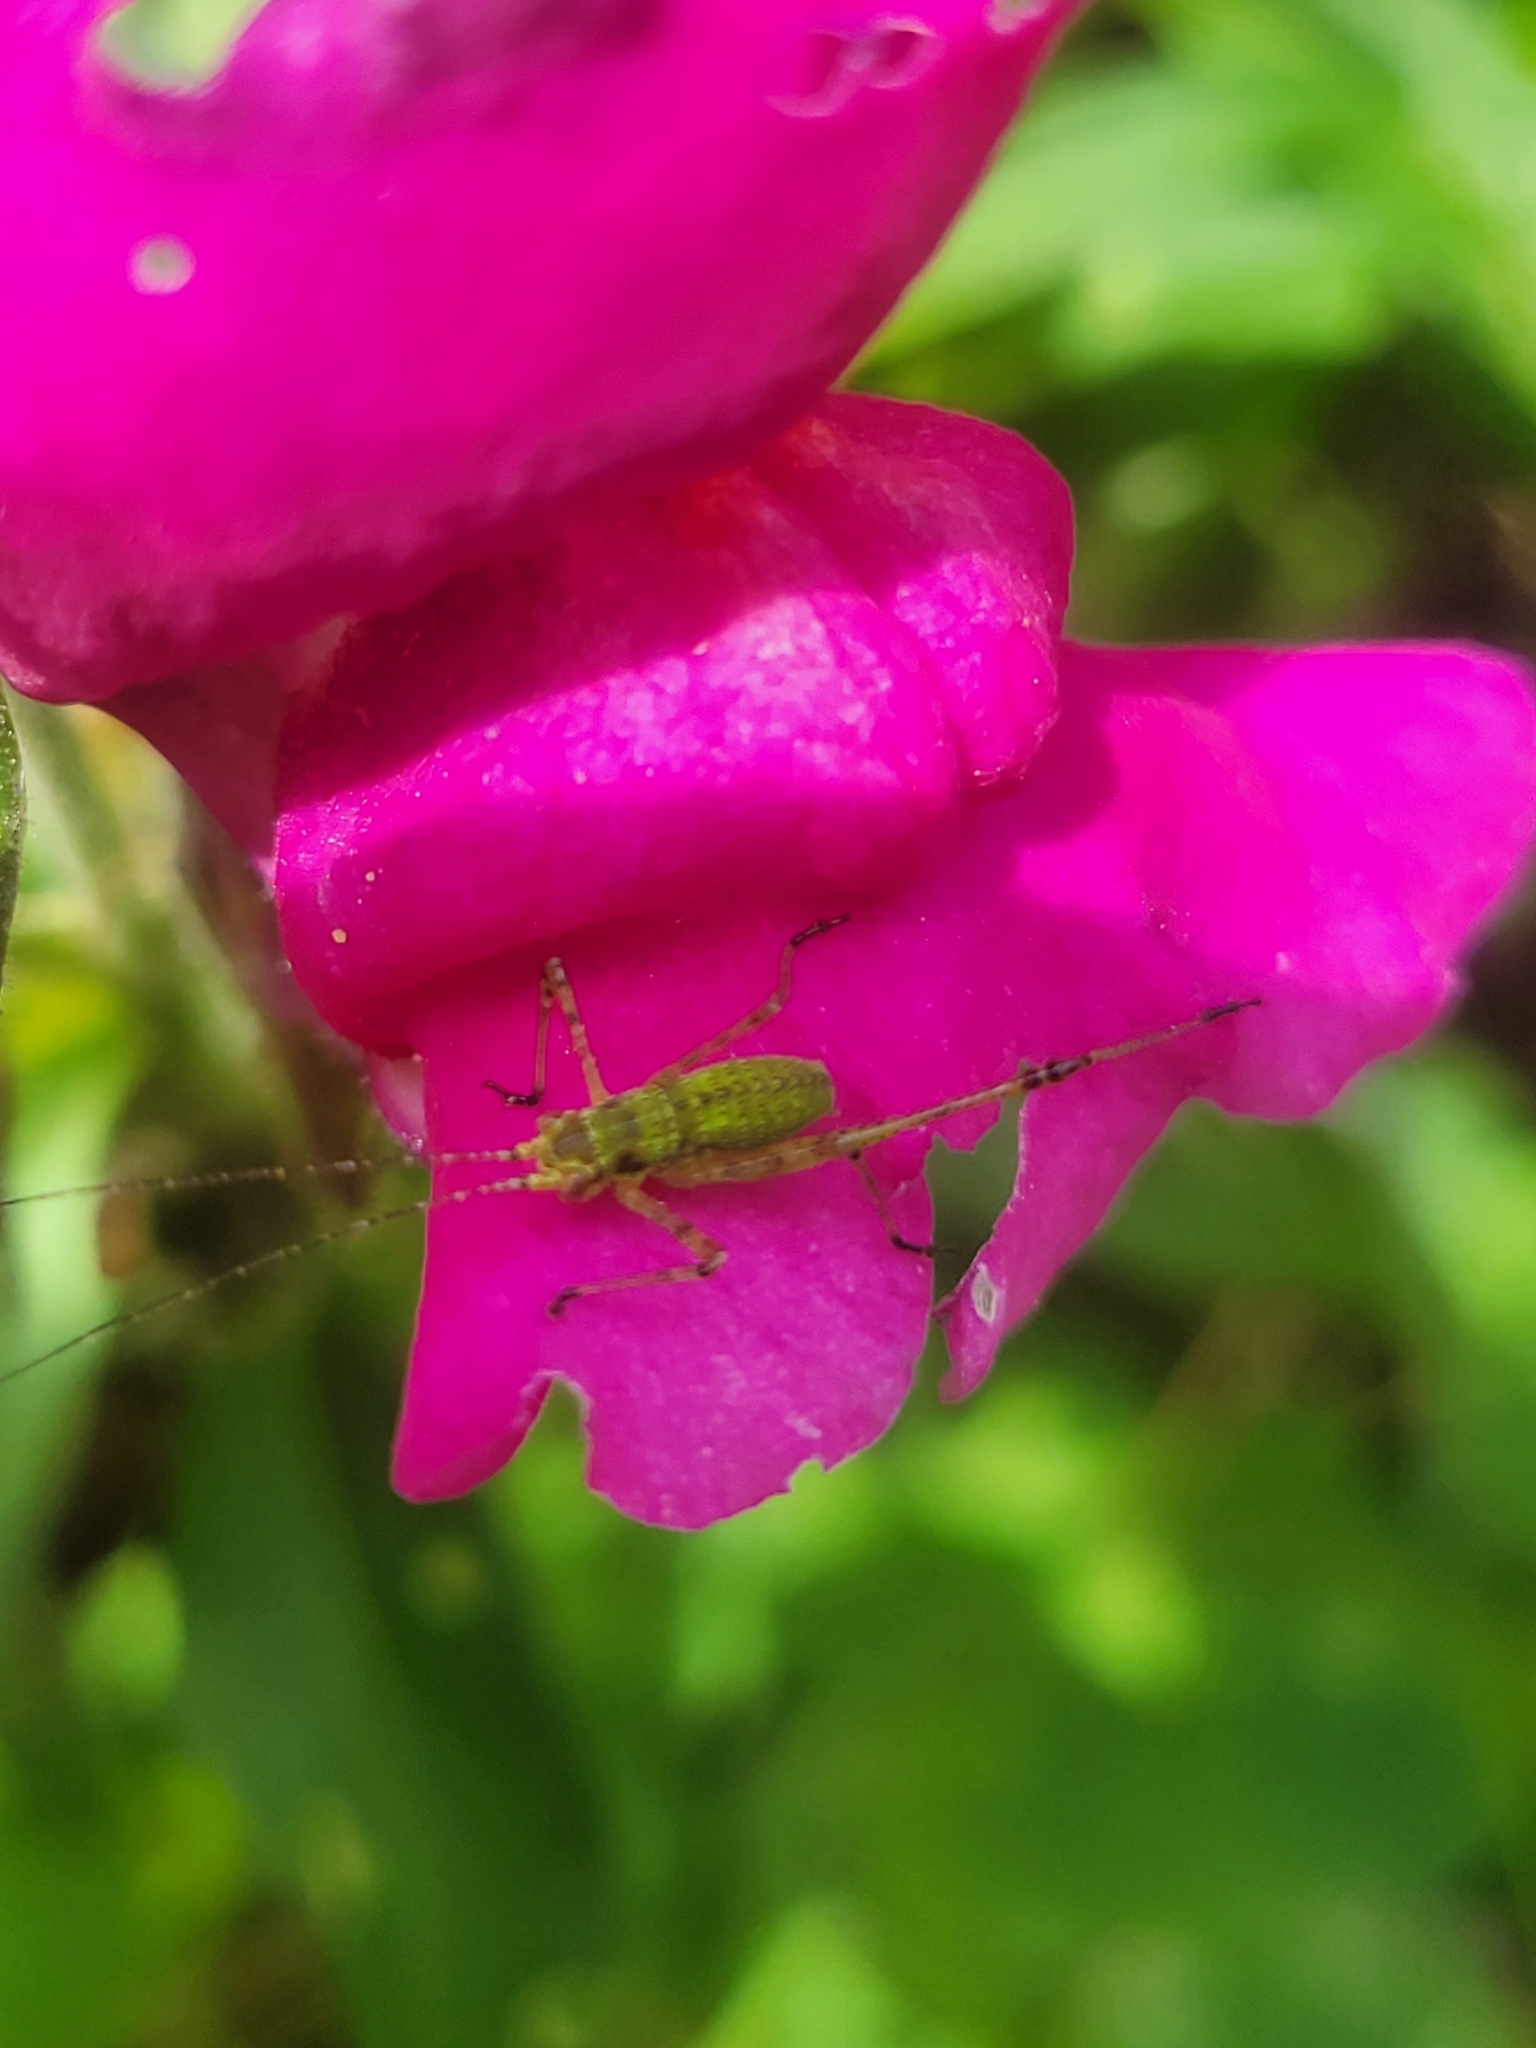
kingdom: Animalia
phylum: Arthropoda
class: Insecta
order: Orthoptera
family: Tettigoniidae
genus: Phaneroptera
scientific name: Phaneroptera nana
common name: Southern sickle bush-cricket
